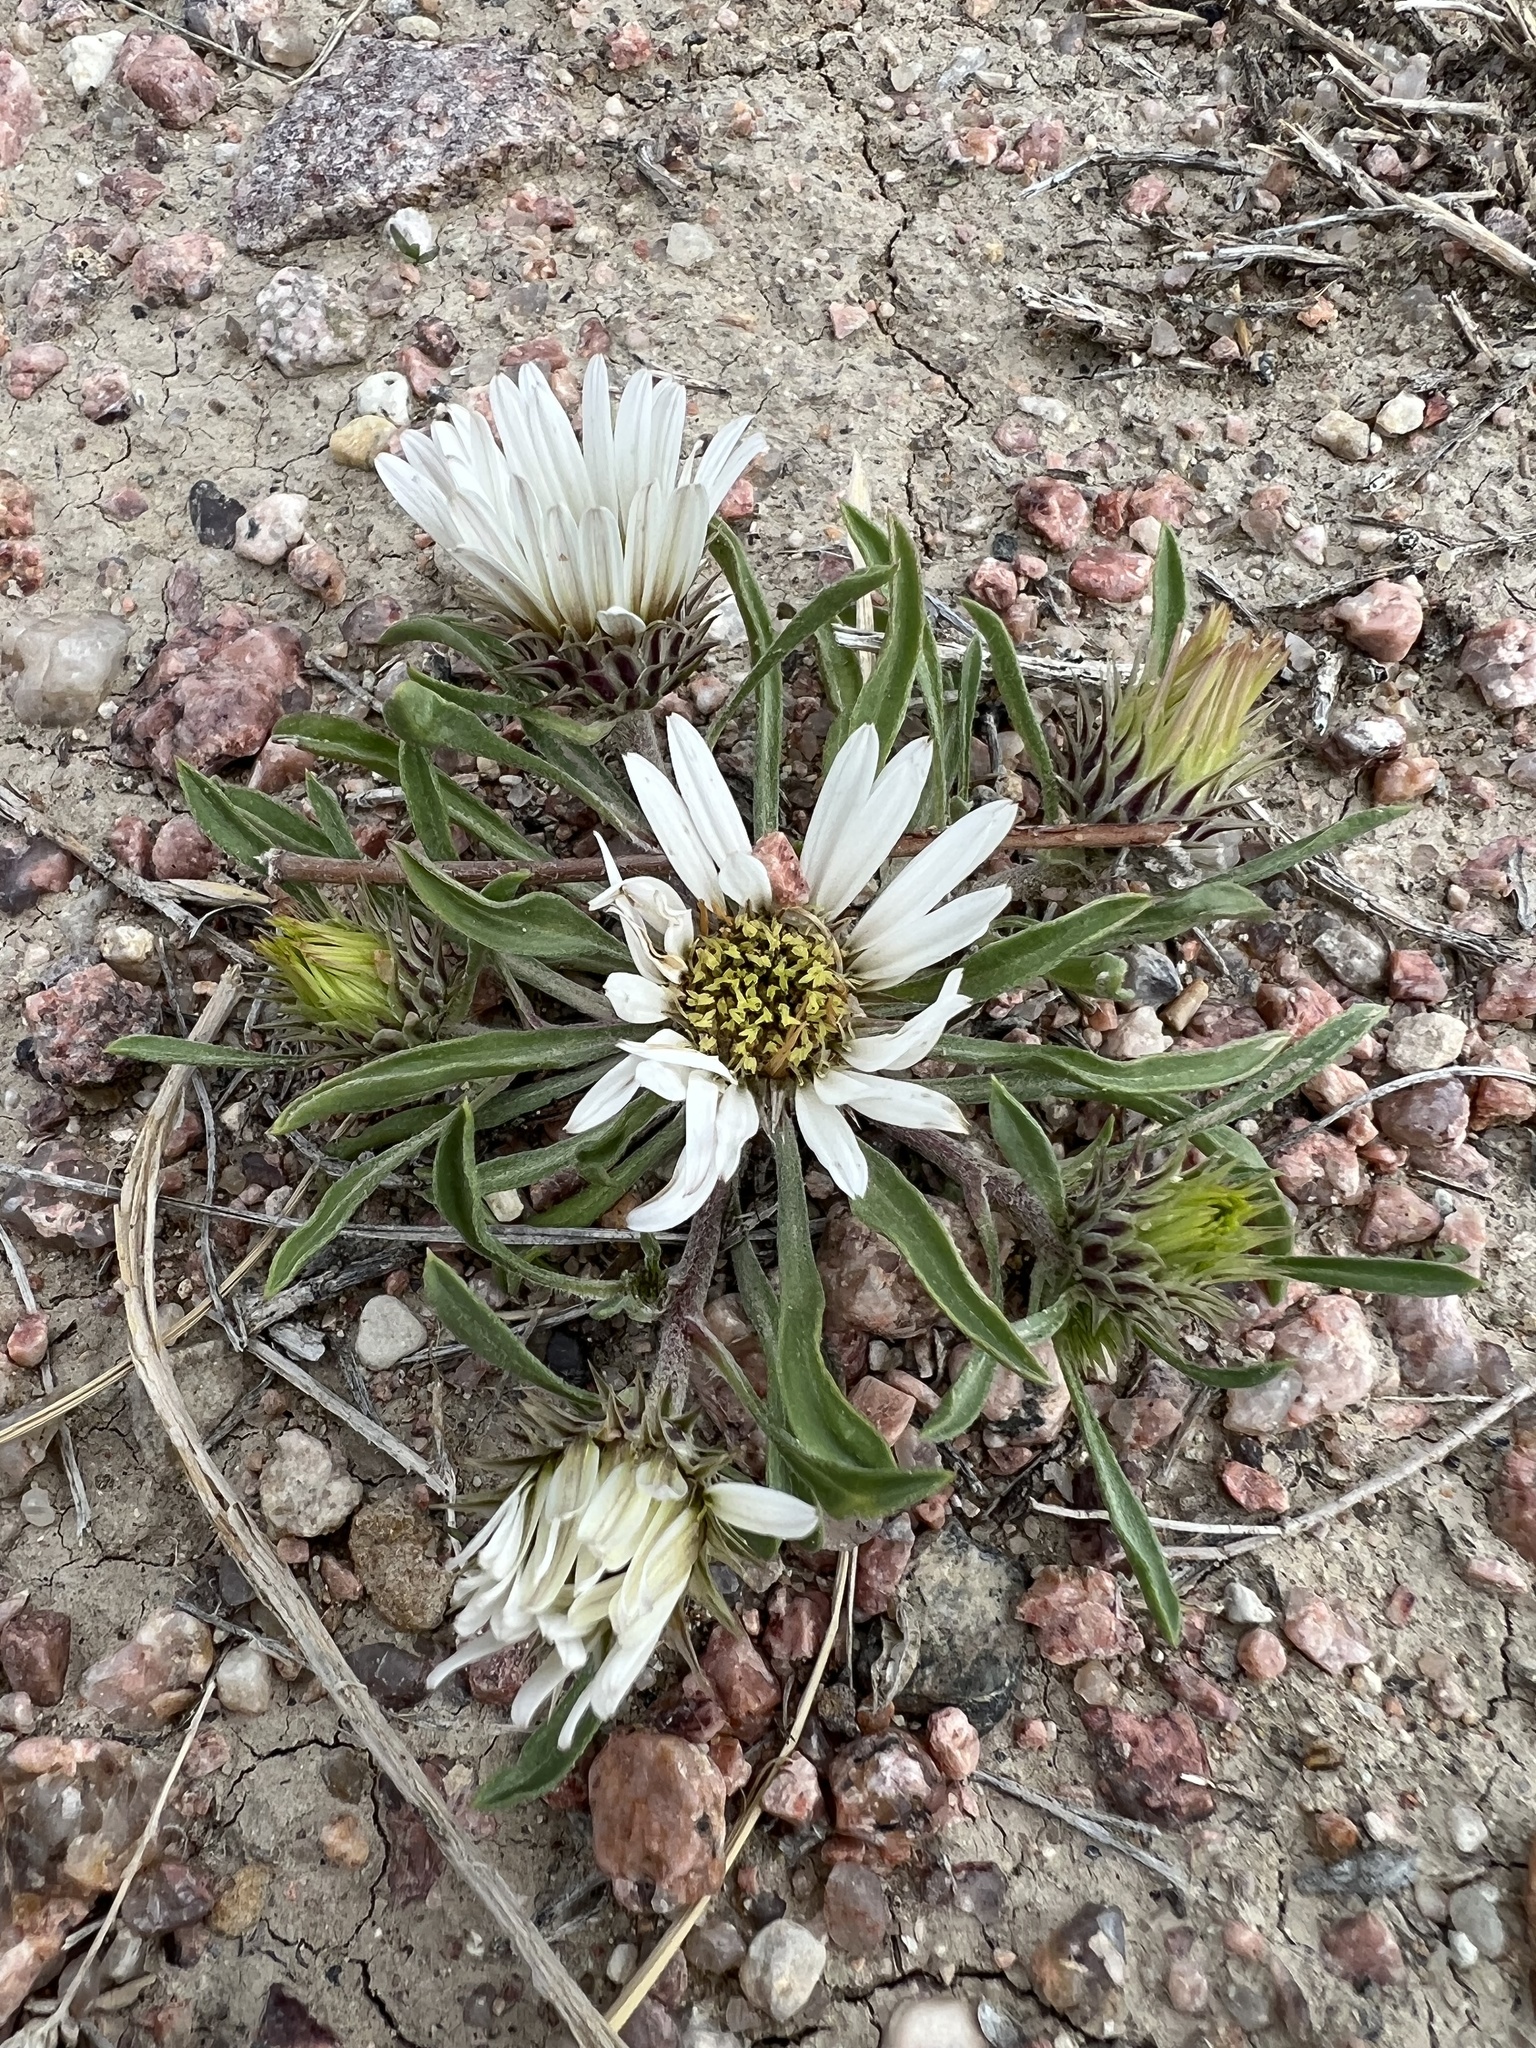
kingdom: Plantae
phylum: Tracheophyta
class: Magnoliopsida
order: Asterales
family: Asteraceae
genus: Townsendia
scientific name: Townsendia grandiflora
